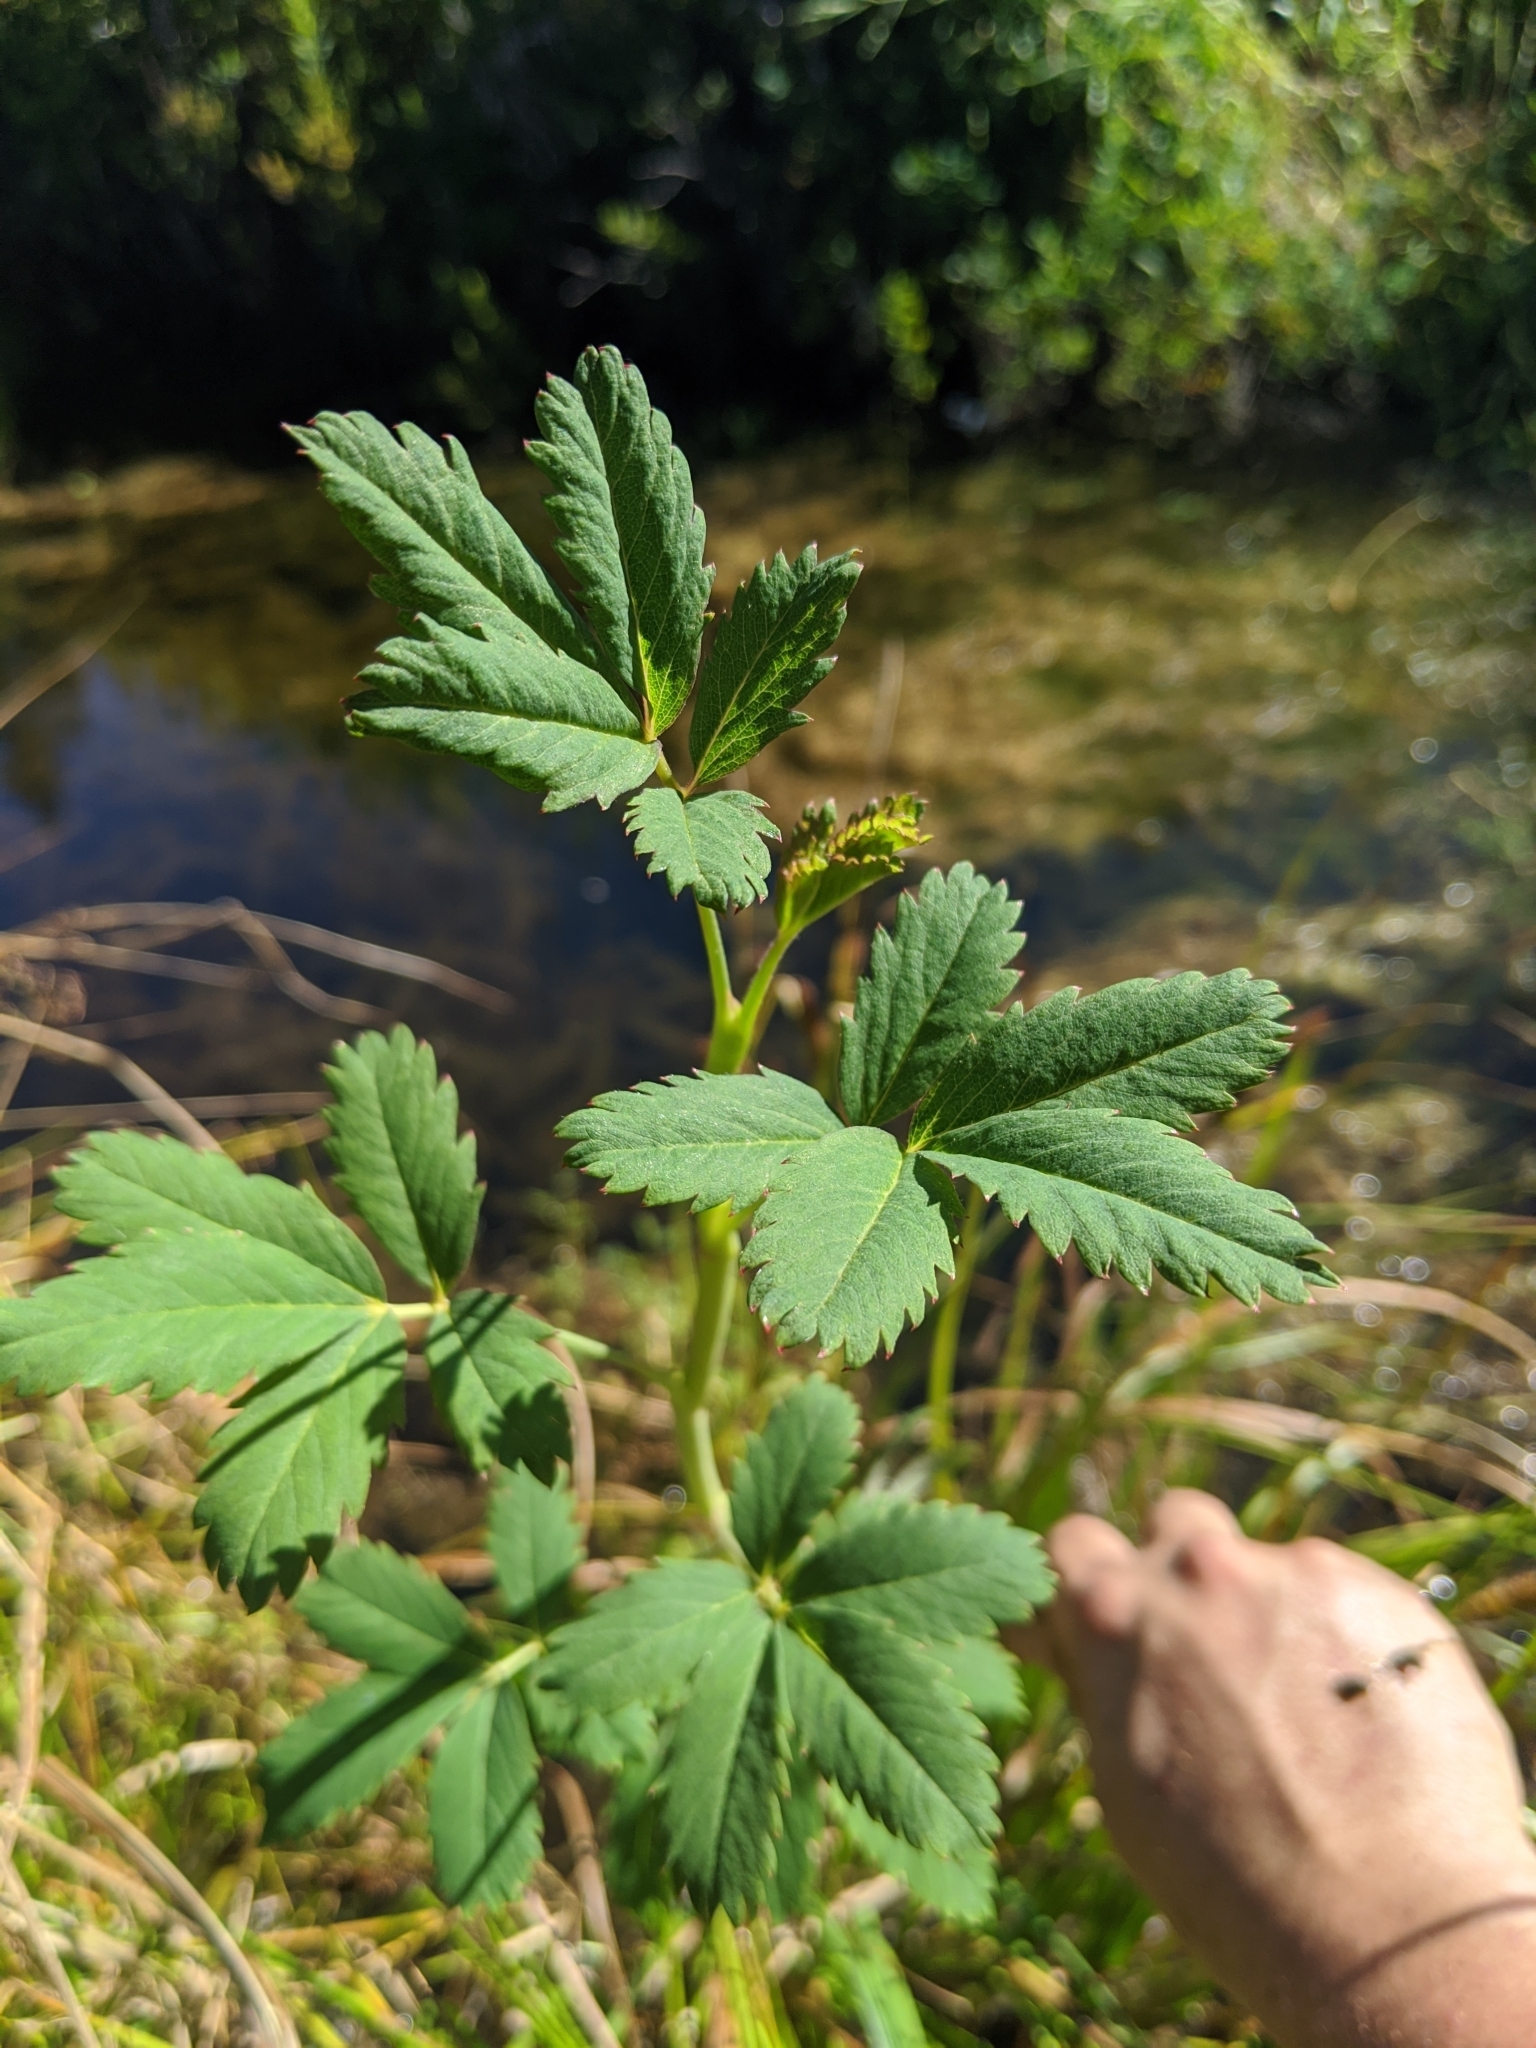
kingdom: Plantae
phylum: Tracheophyta
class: Magnoliopsida
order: Rosales
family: Rosaceae
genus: Comarum
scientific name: Comarum palustre
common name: Marsh cinquefoil
